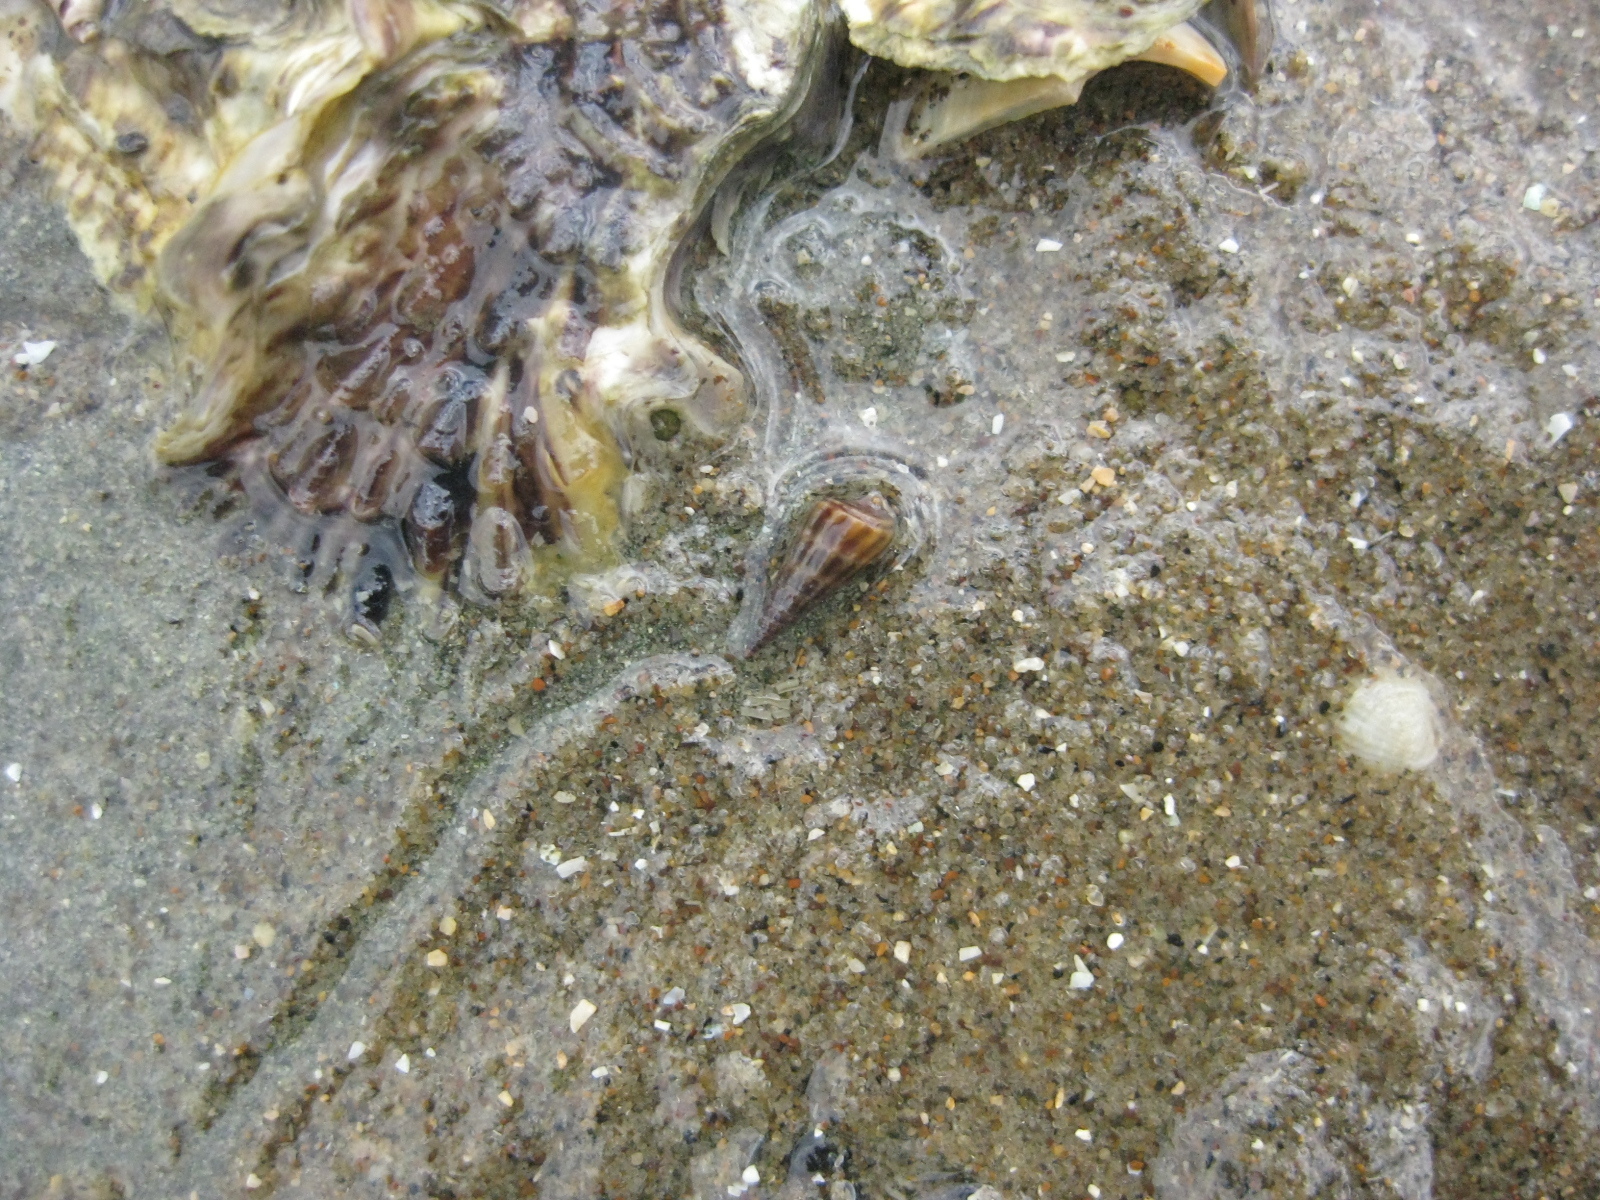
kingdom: Animalia
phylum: Mollusca
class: Gastropoda
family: Batillariidae
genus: Zeacumantus
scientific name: Zeacumantus subcarinatus
